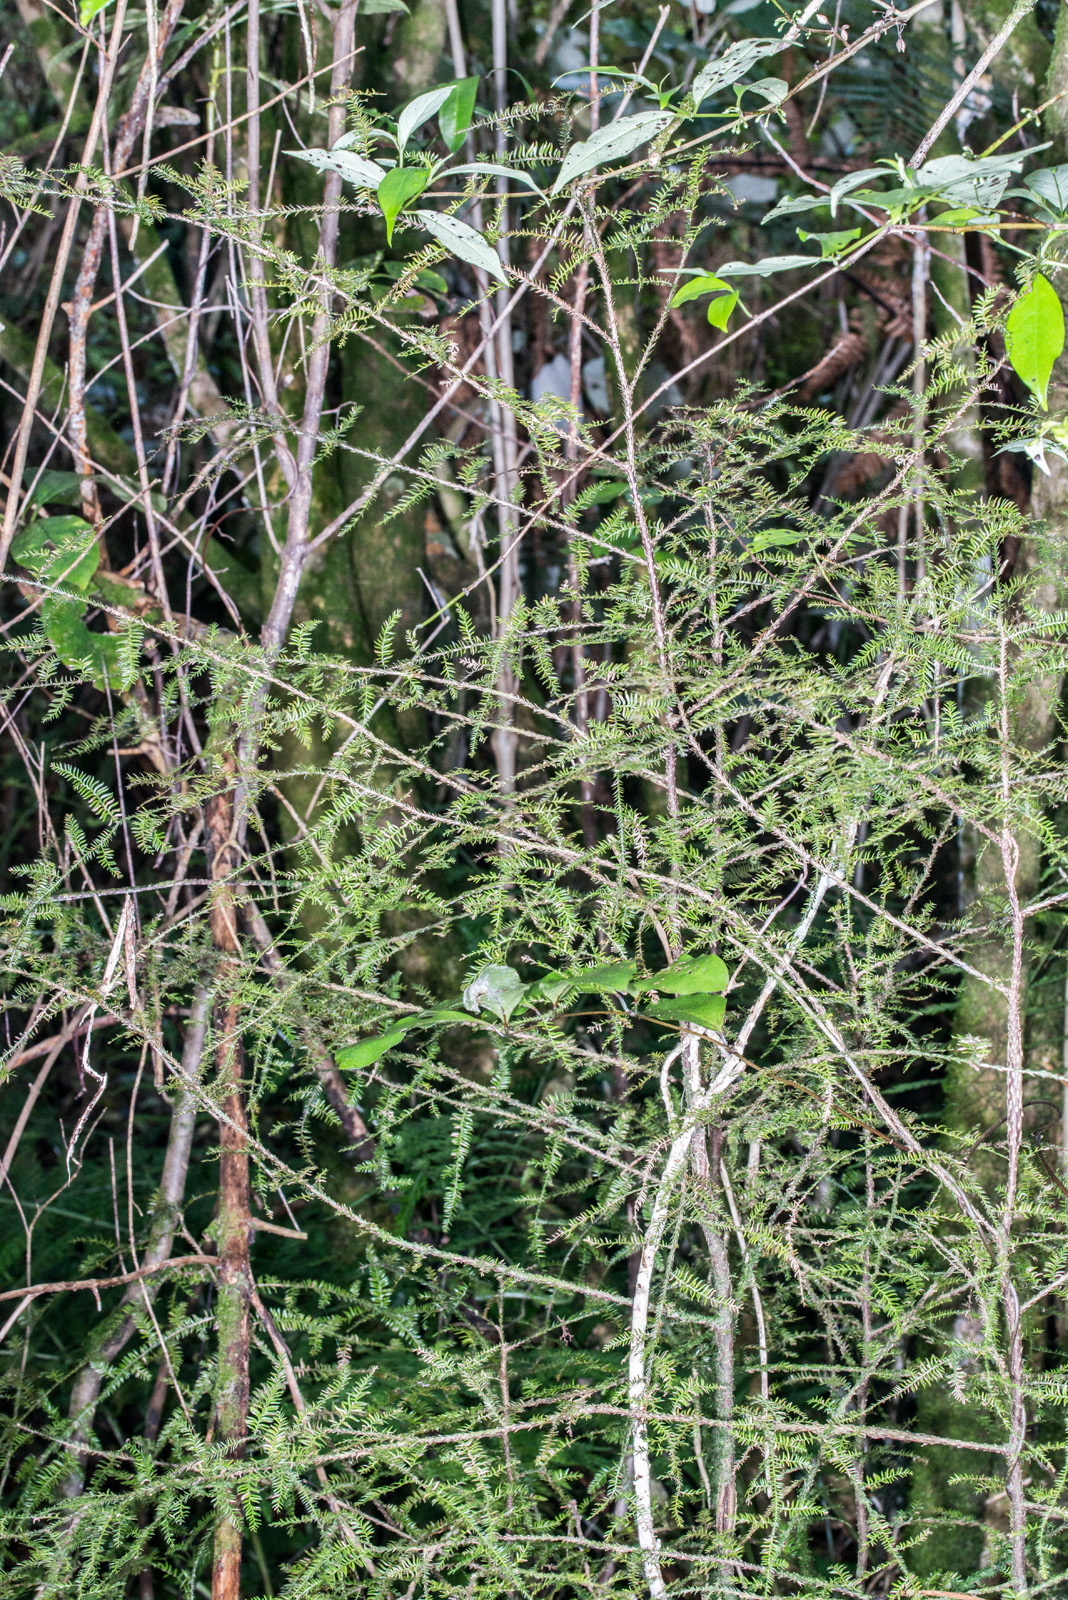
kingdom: Plantae
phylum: Tracheophyta
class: Pinopsida
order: Pinales
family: Podocarpaceae
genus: Dacrycarpus
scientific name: Dacrycarpus dacrydioides
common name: White pine
